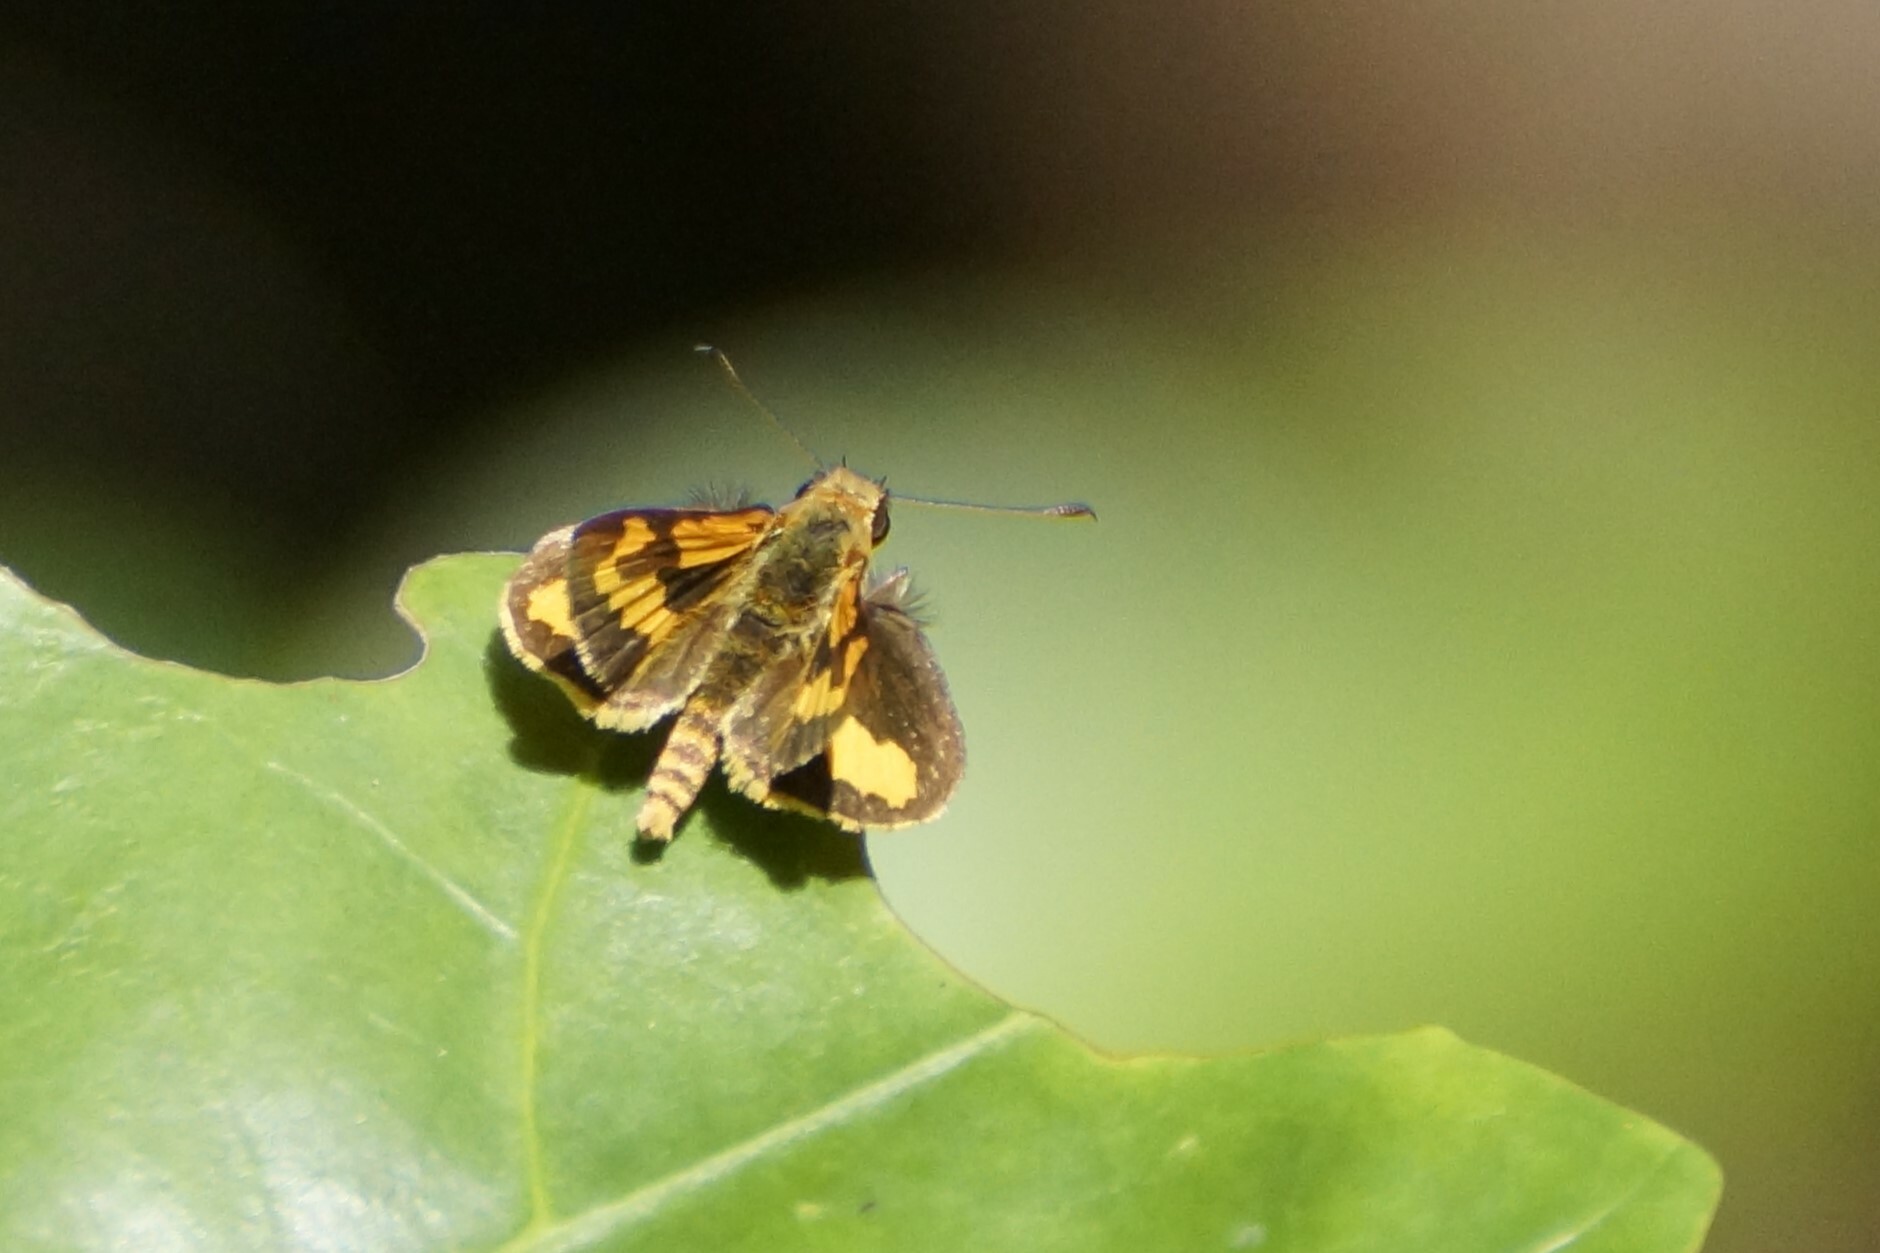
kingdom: Animalia
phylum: Arthropoda
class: Insecta
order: Lepidoptera
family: Hesperiidae
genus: Ocybadistes
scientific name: Ocybadistes ardea
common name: Dark orange dart
